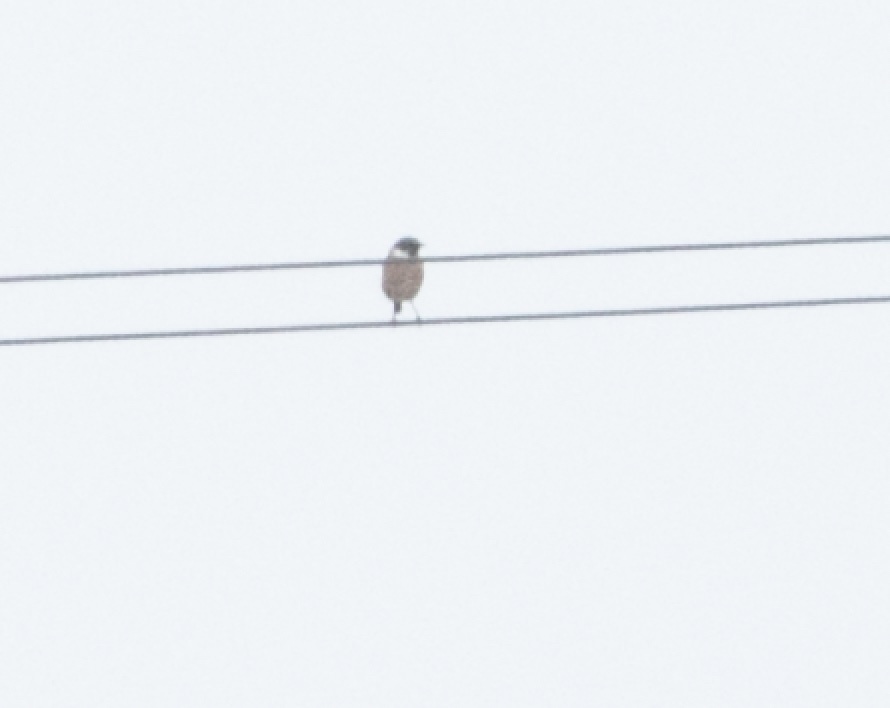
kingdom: Animalia
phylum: Chordata
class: Aves
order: Passeriformes
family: Muscicapidae
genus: Saxicola
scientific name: Saxicola rubicola
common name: European stonechat
